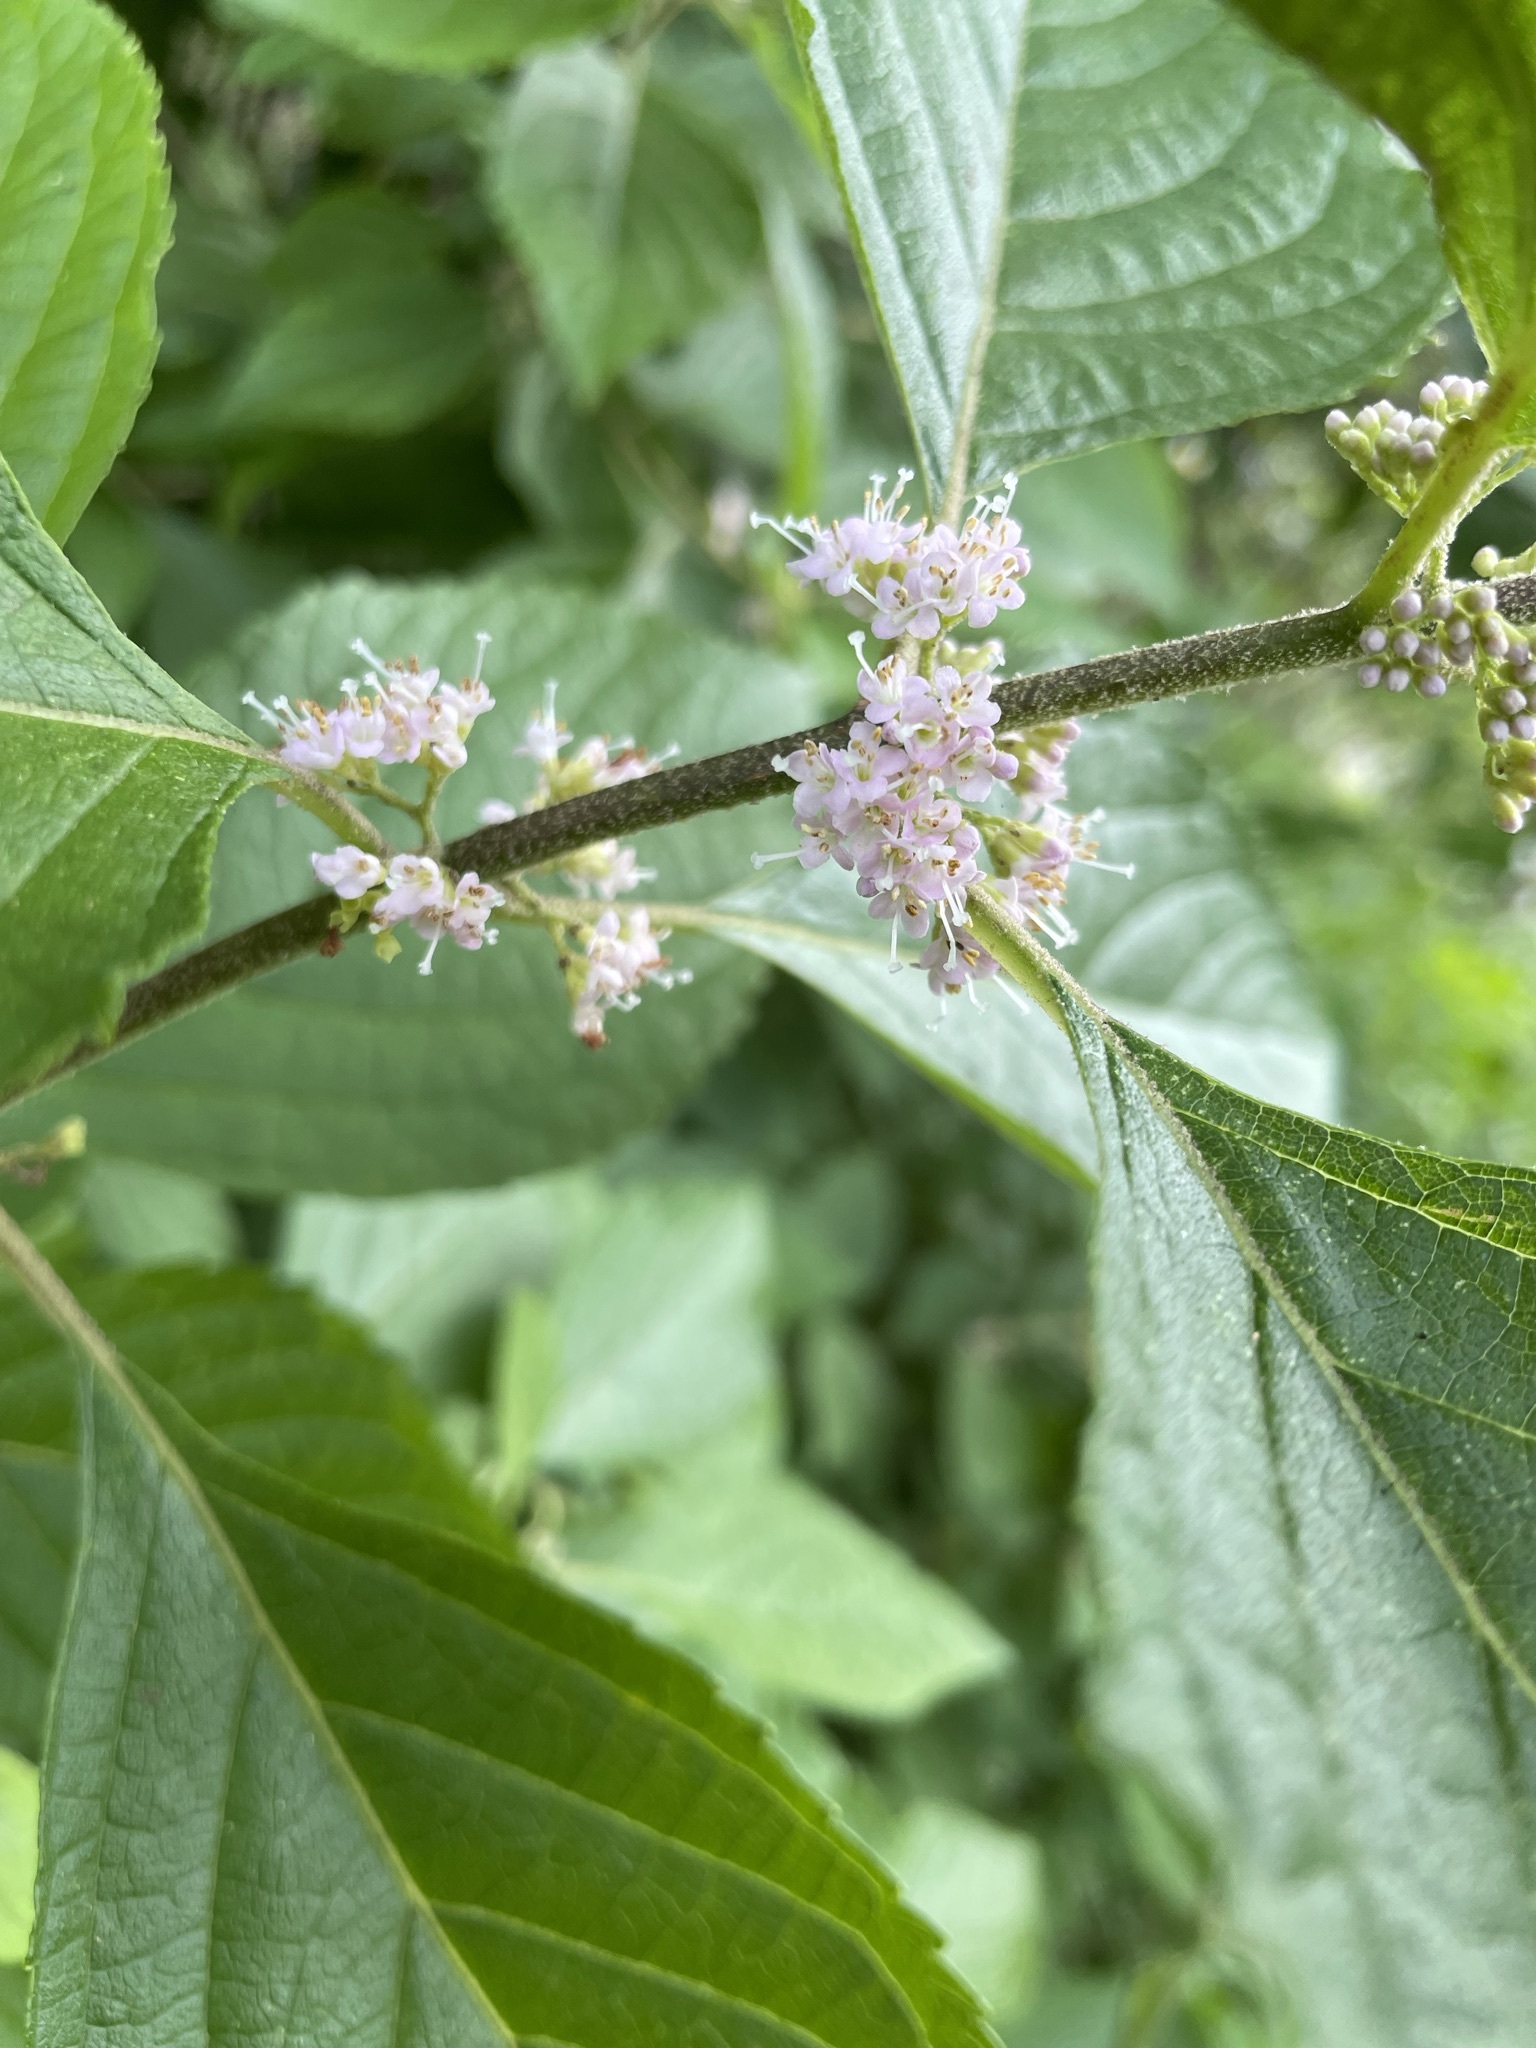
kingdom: Plantae
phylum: Tracheophyta
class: Magnoliopsida
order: Lamiales
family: Lamiaceae
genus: Callicarpa
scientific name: Callicarpa americana
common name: American beautyberry
